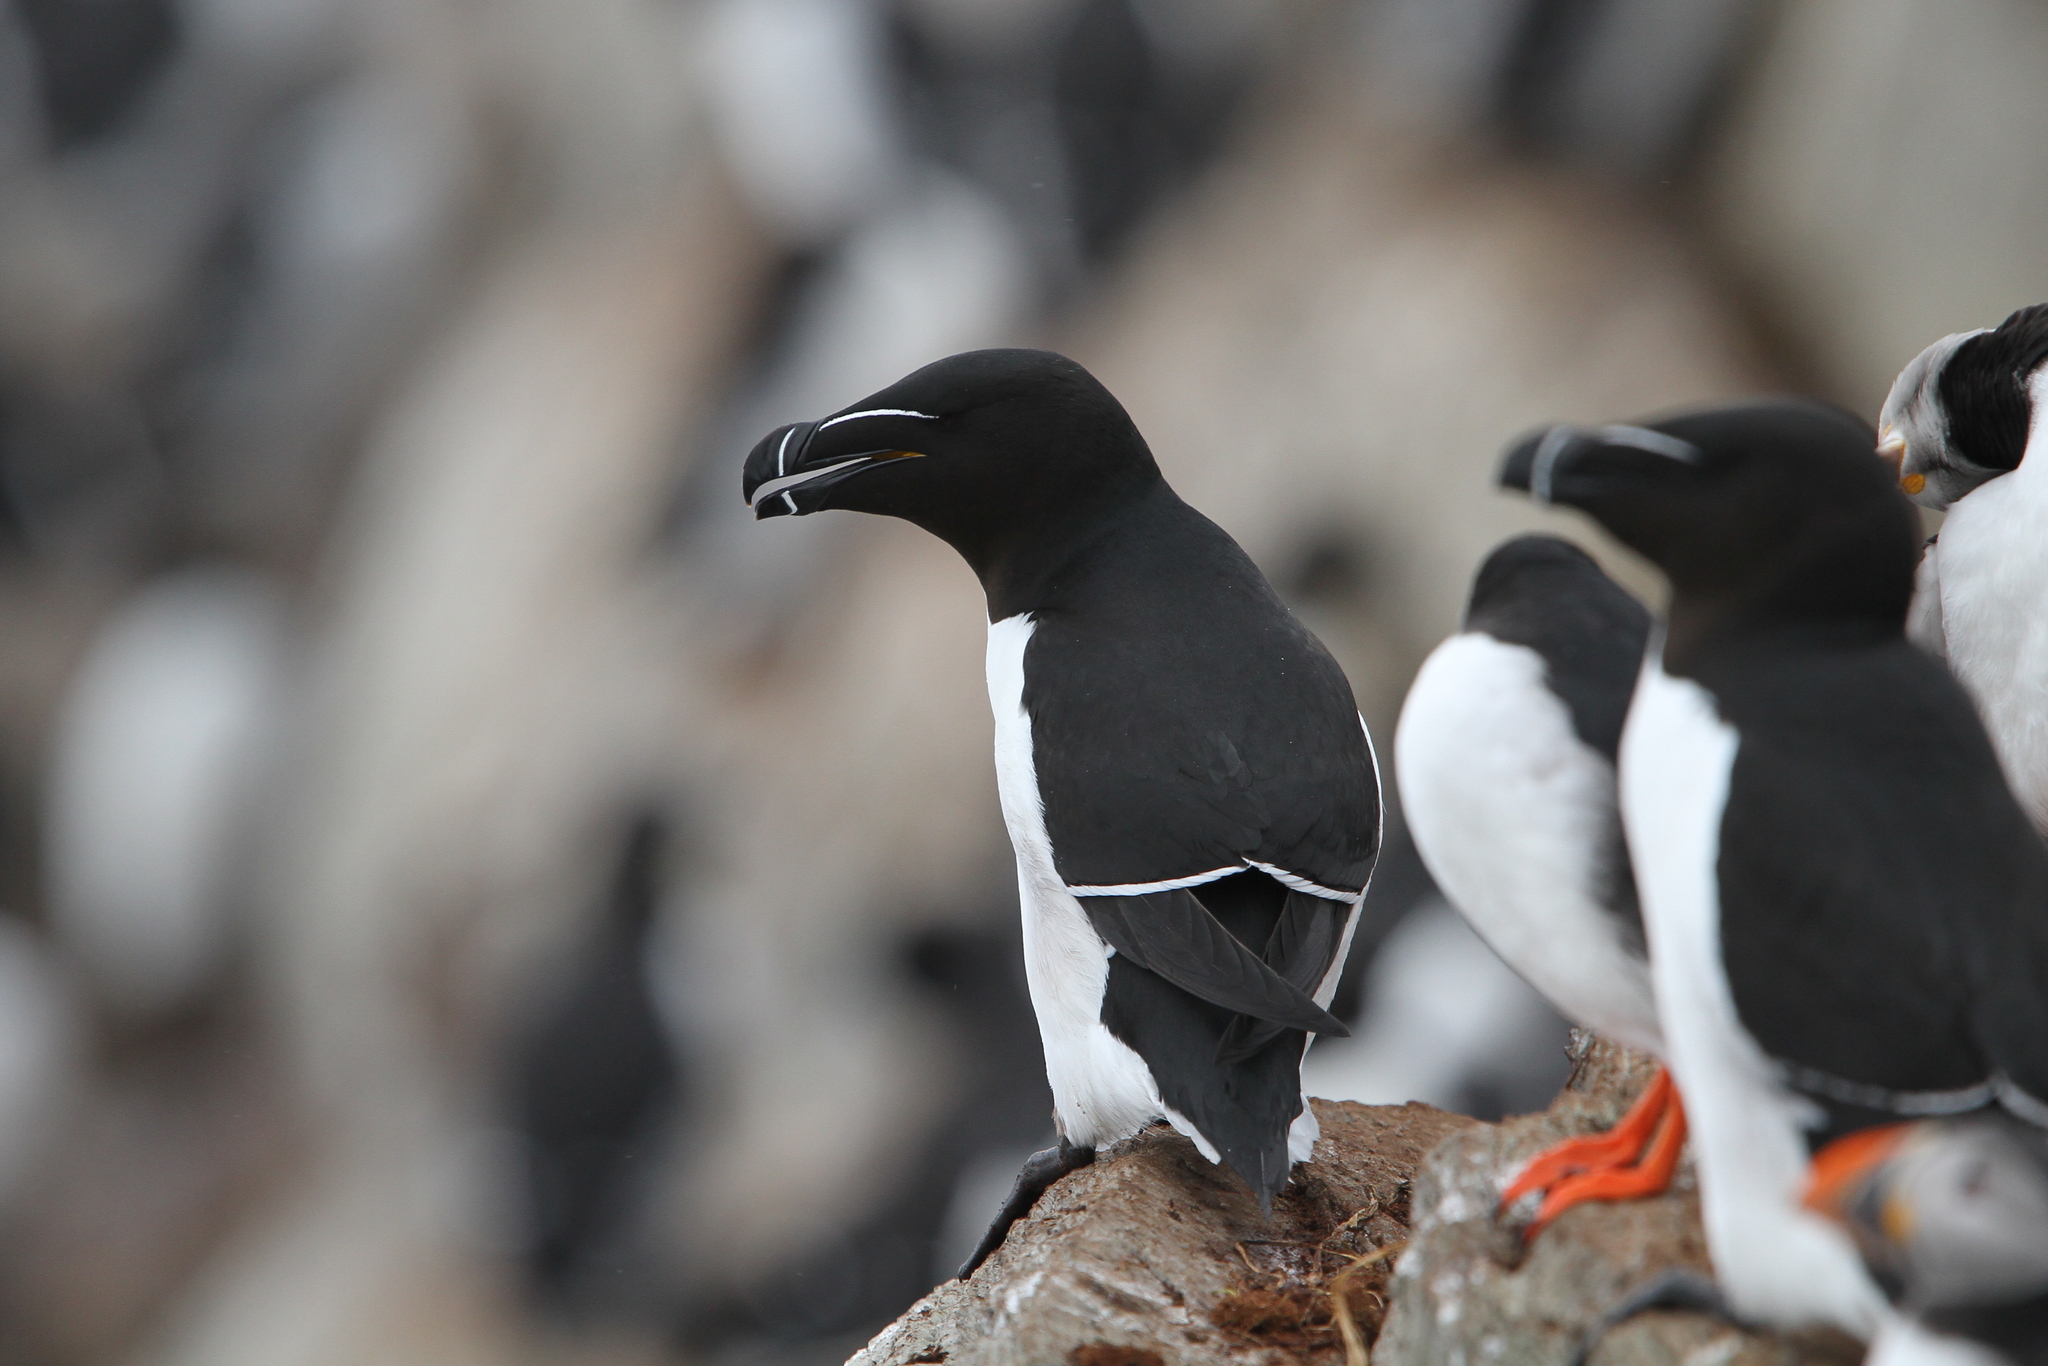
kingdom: Animalia
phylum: Chordata
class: Aves
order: Charadriiformes
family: Alcidae
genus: Alca
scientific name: Alca torda
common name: Razorbill
